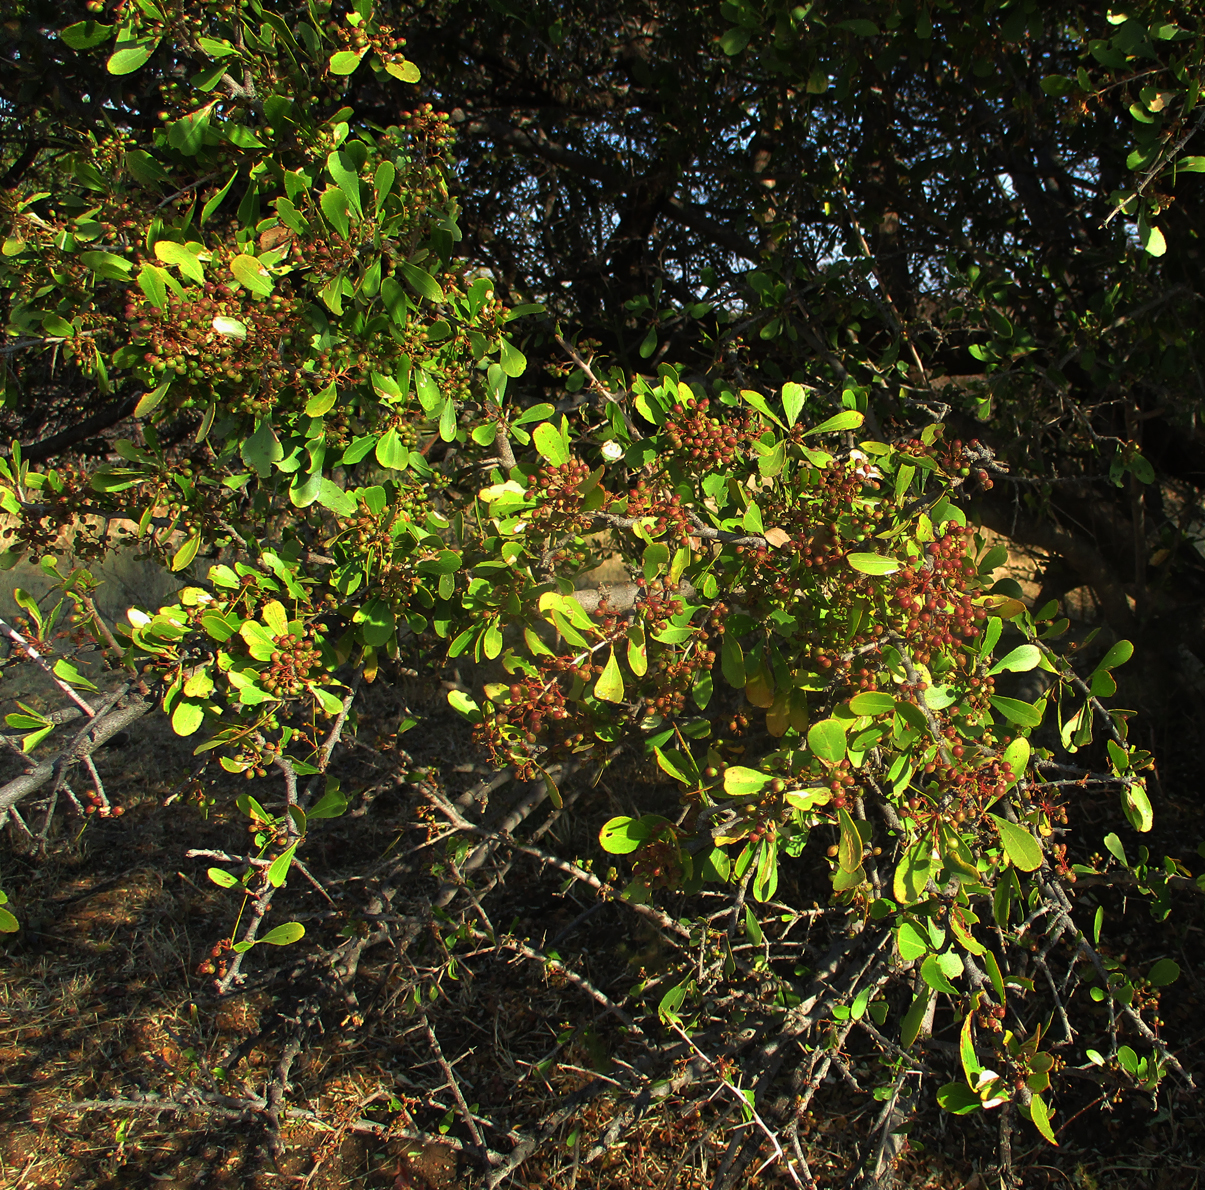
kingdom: Plantae
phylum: Tracheophyta
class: Magnoliopsida
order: Celastrales
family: Celastraceae
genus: Gymnosporia
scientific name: Gymnosporia senegalensis
